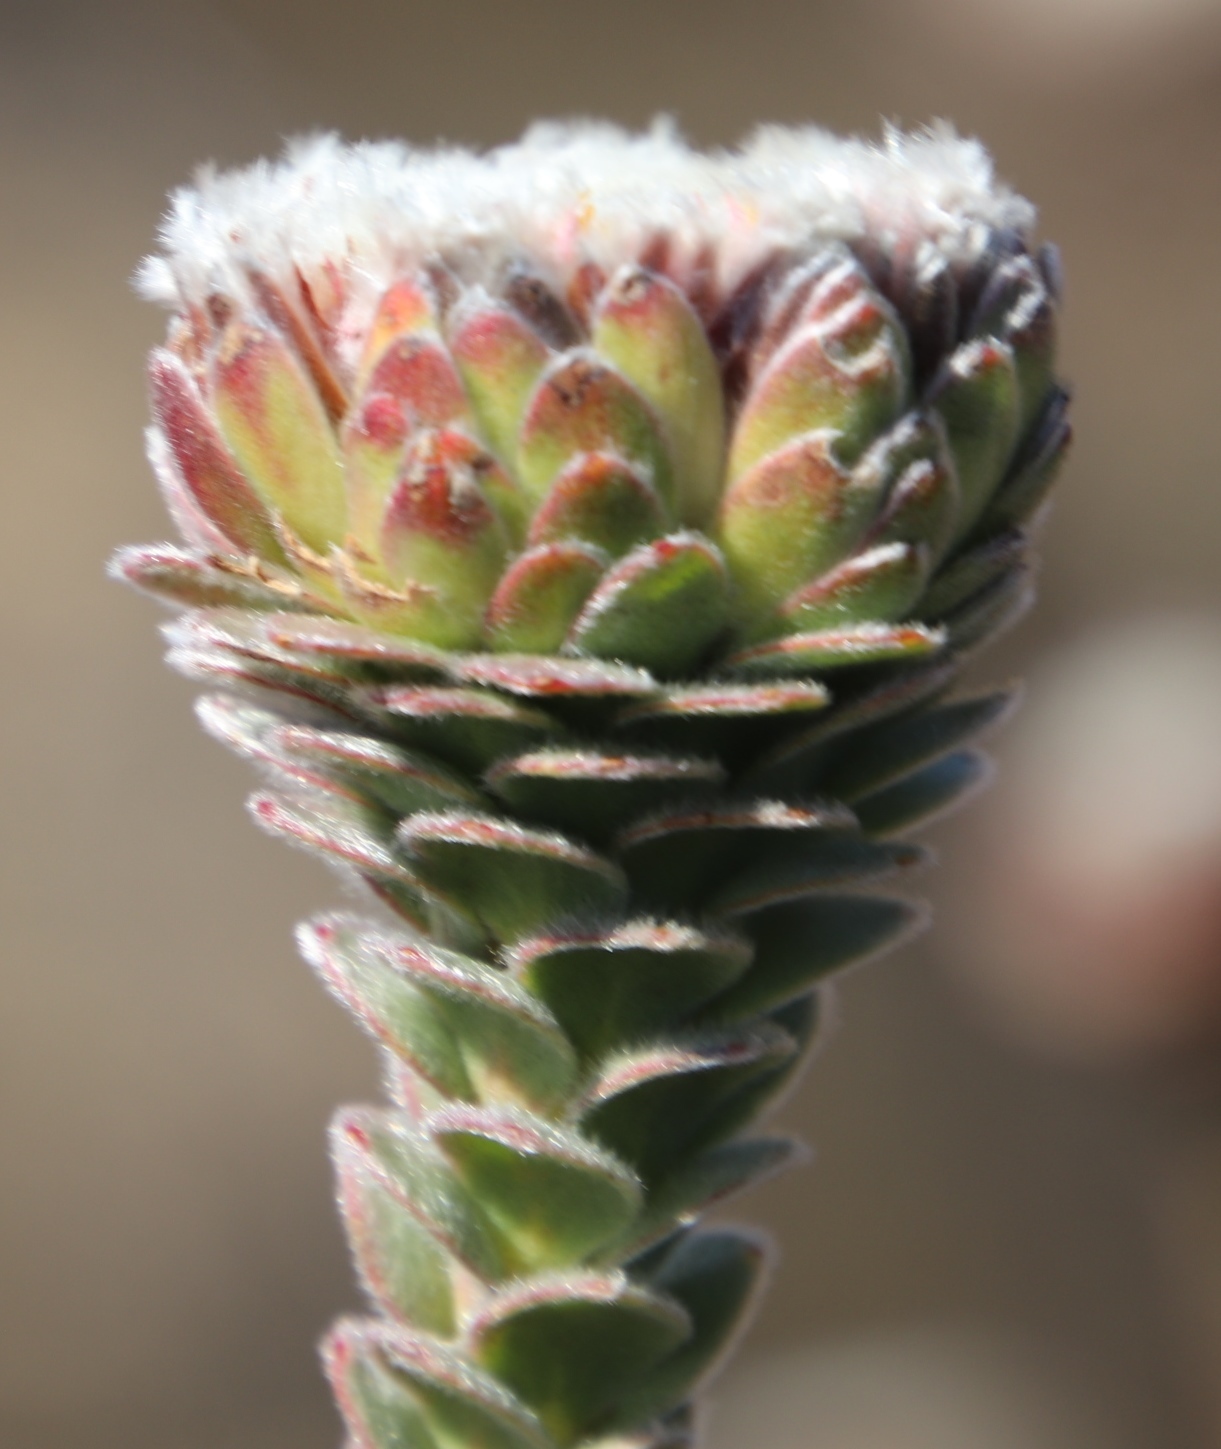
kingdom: Plantae
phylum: Tracheophyta
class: Magnoliopsida
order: Proteales
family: Proteaceae
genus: Leucadendron
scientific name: Leucadendron concavum
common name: Pakhuis conebush
